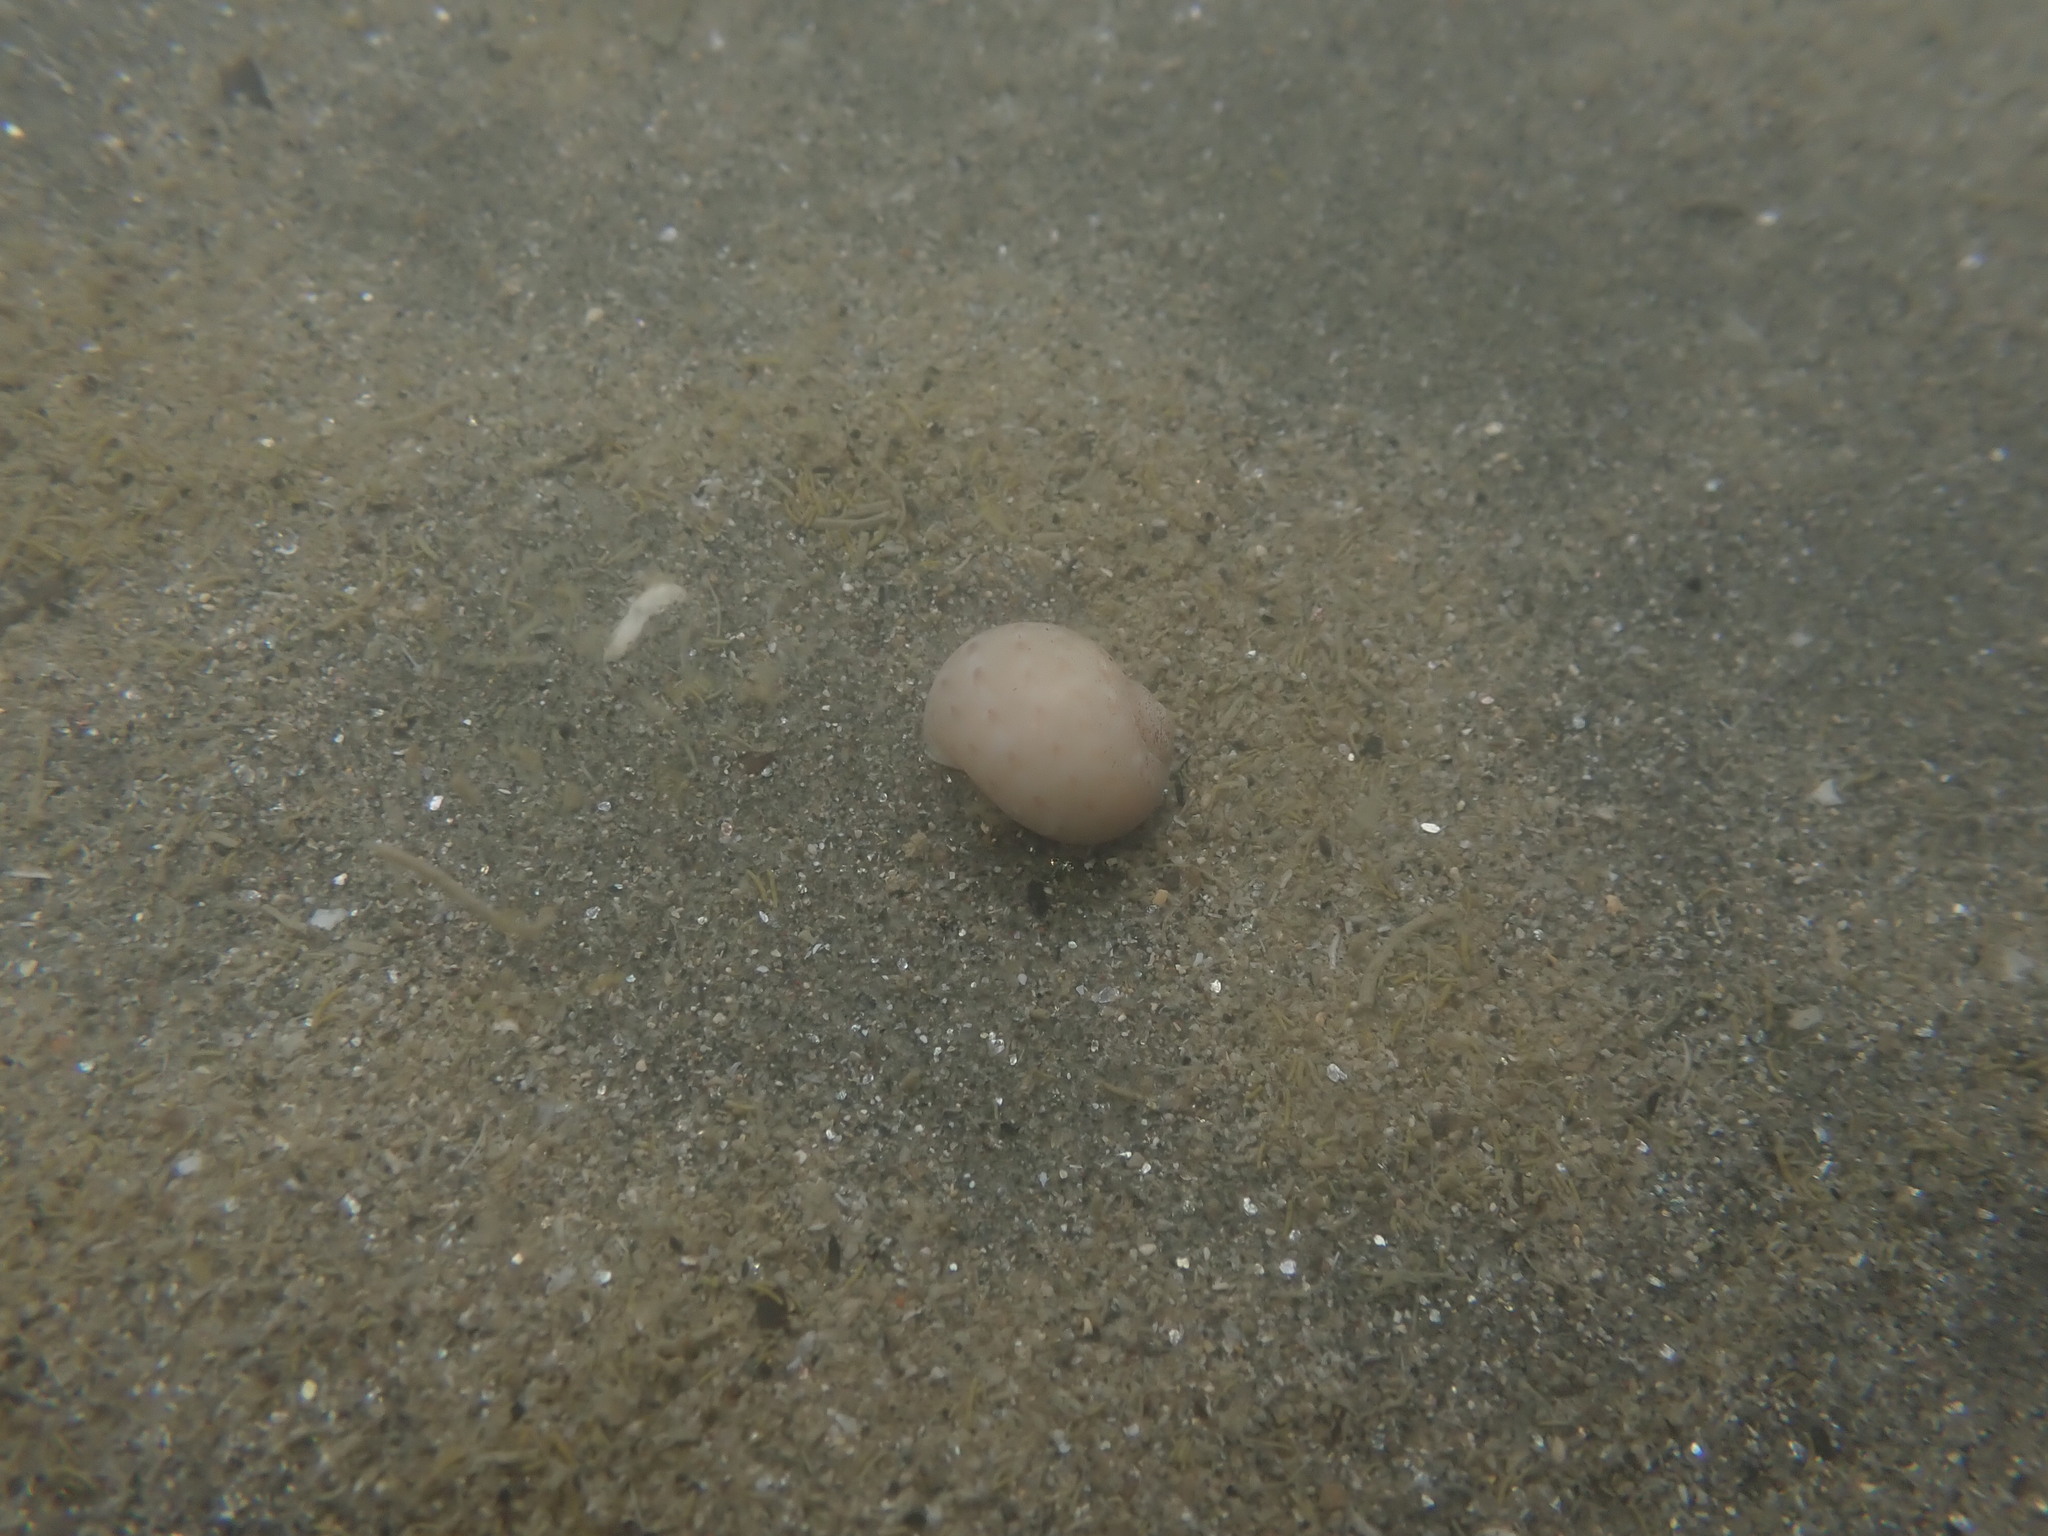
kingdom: Animalia
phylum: Mollusca
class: Gastropoda
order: Littorinimorpha
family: Naticidae
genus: Tanea
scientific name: Tanea zelandica
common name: New zealand moonsnail
